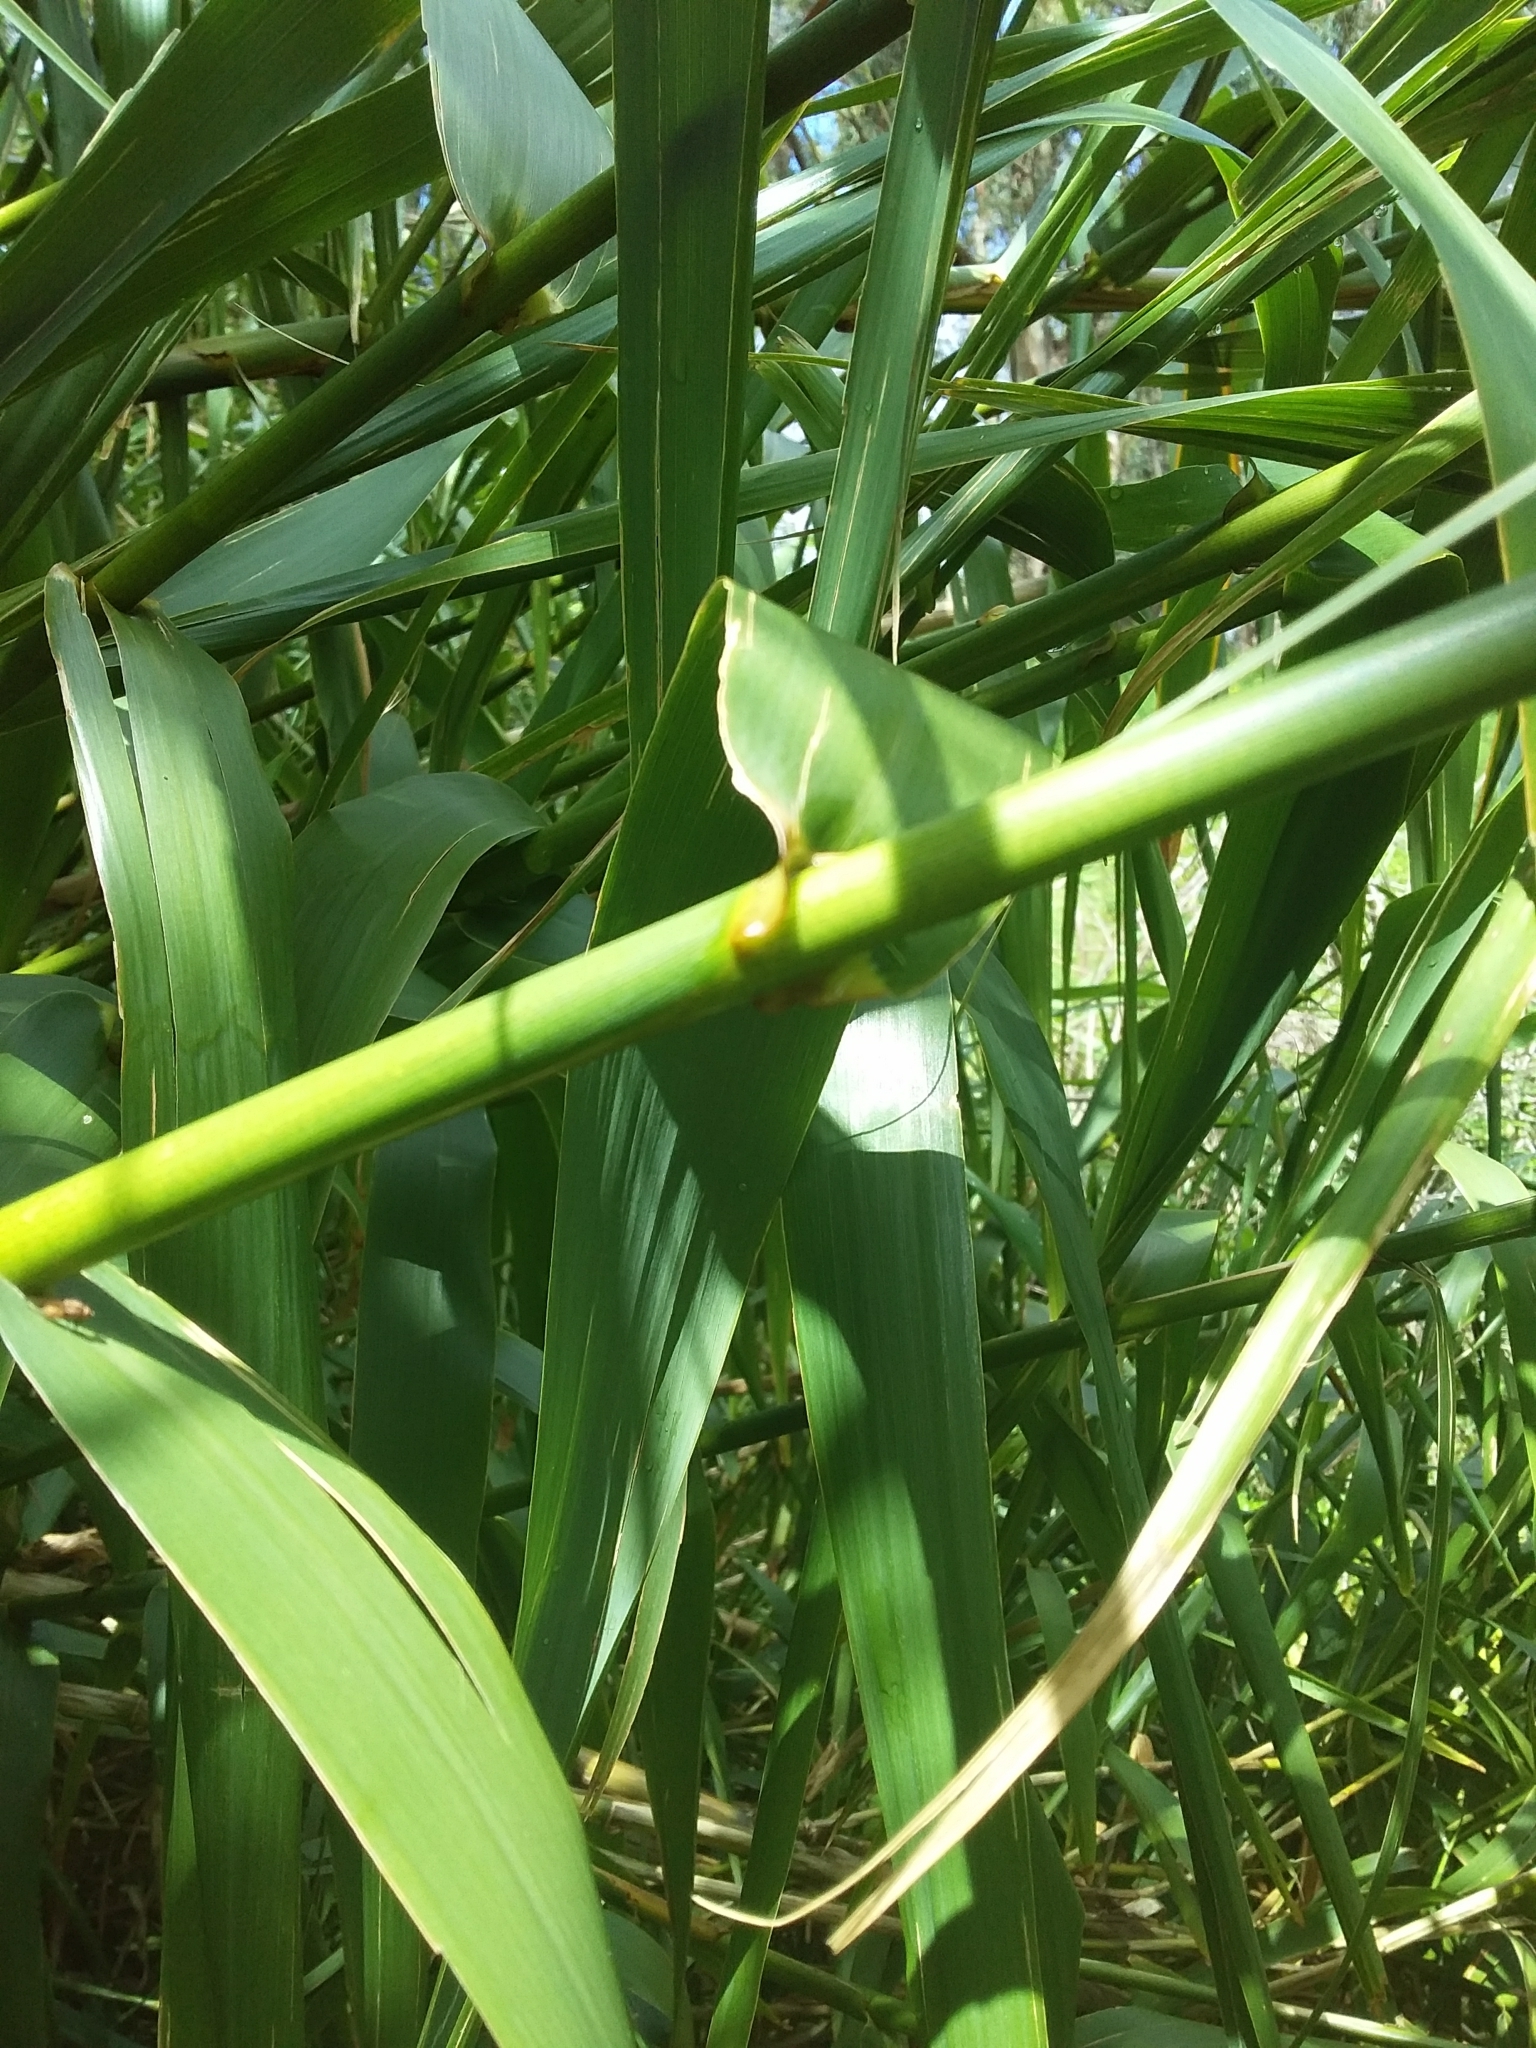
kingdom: Plantae
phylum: Tracheophyta
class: Liliopsida
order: Poales
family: Poaceae
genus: Arundo
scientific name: Arundo donax
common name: Giant reed
